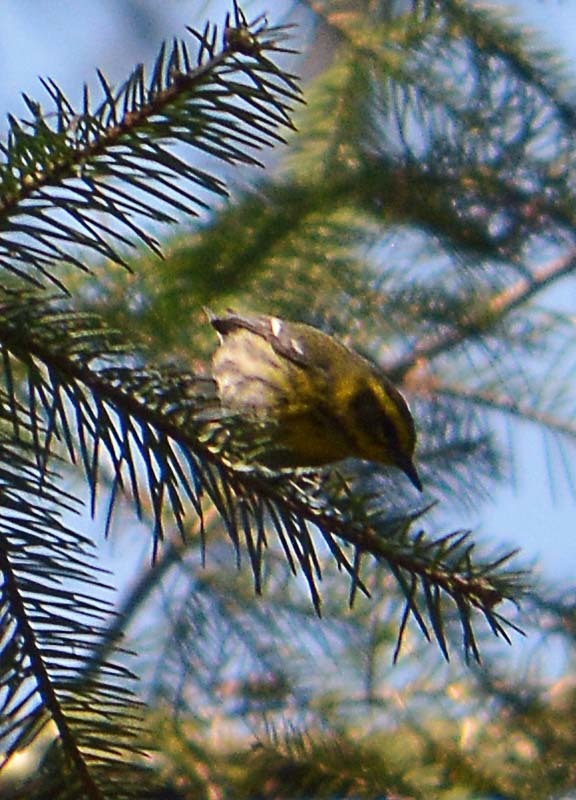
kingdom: Animalia
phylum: Chordata
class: Aves
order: Passeriformes
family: Parulidae
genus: Setophaga
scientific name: Setophaga townsendi
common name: Townsend's warbler
